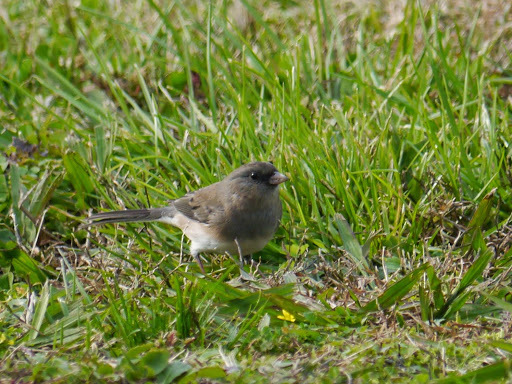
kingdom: Animalia
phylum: Chordata
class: Aves
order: Passeriformes
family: Passerellidae
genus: Junco
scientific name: Junco hyemalis
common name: Dark-eyed junco
